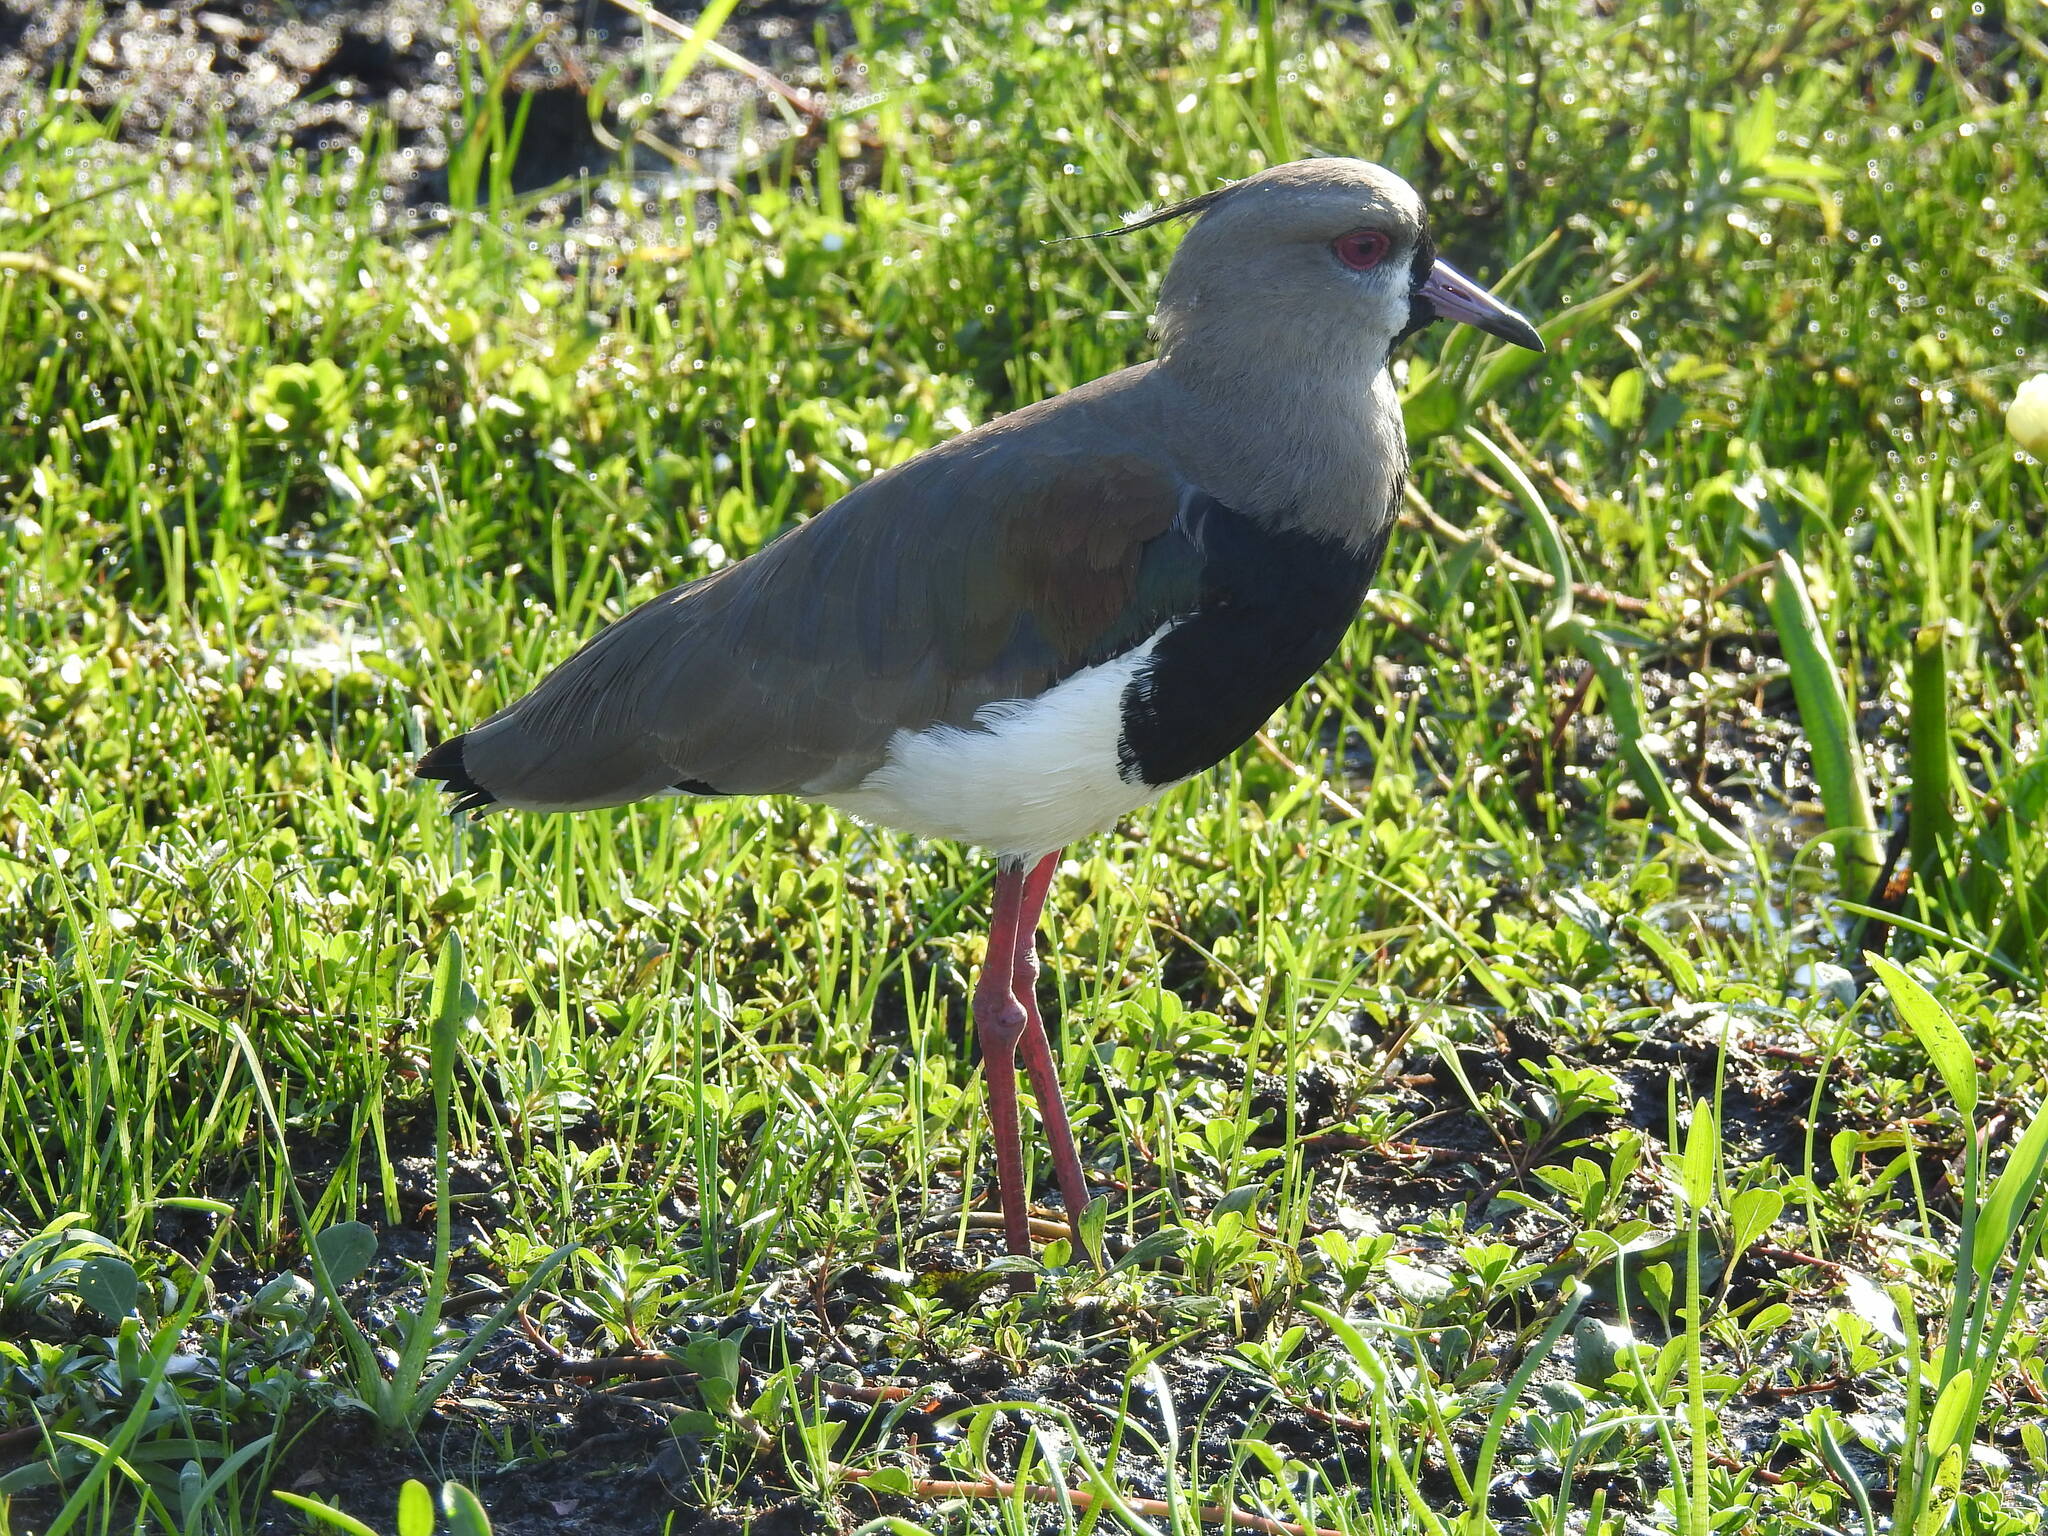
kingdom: Animalia
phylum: Chordata
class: Aves
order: Charadriiformes
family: Charadriidae
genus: Vanellus
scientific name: Vanellus chilensis
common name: Southern lapwing
